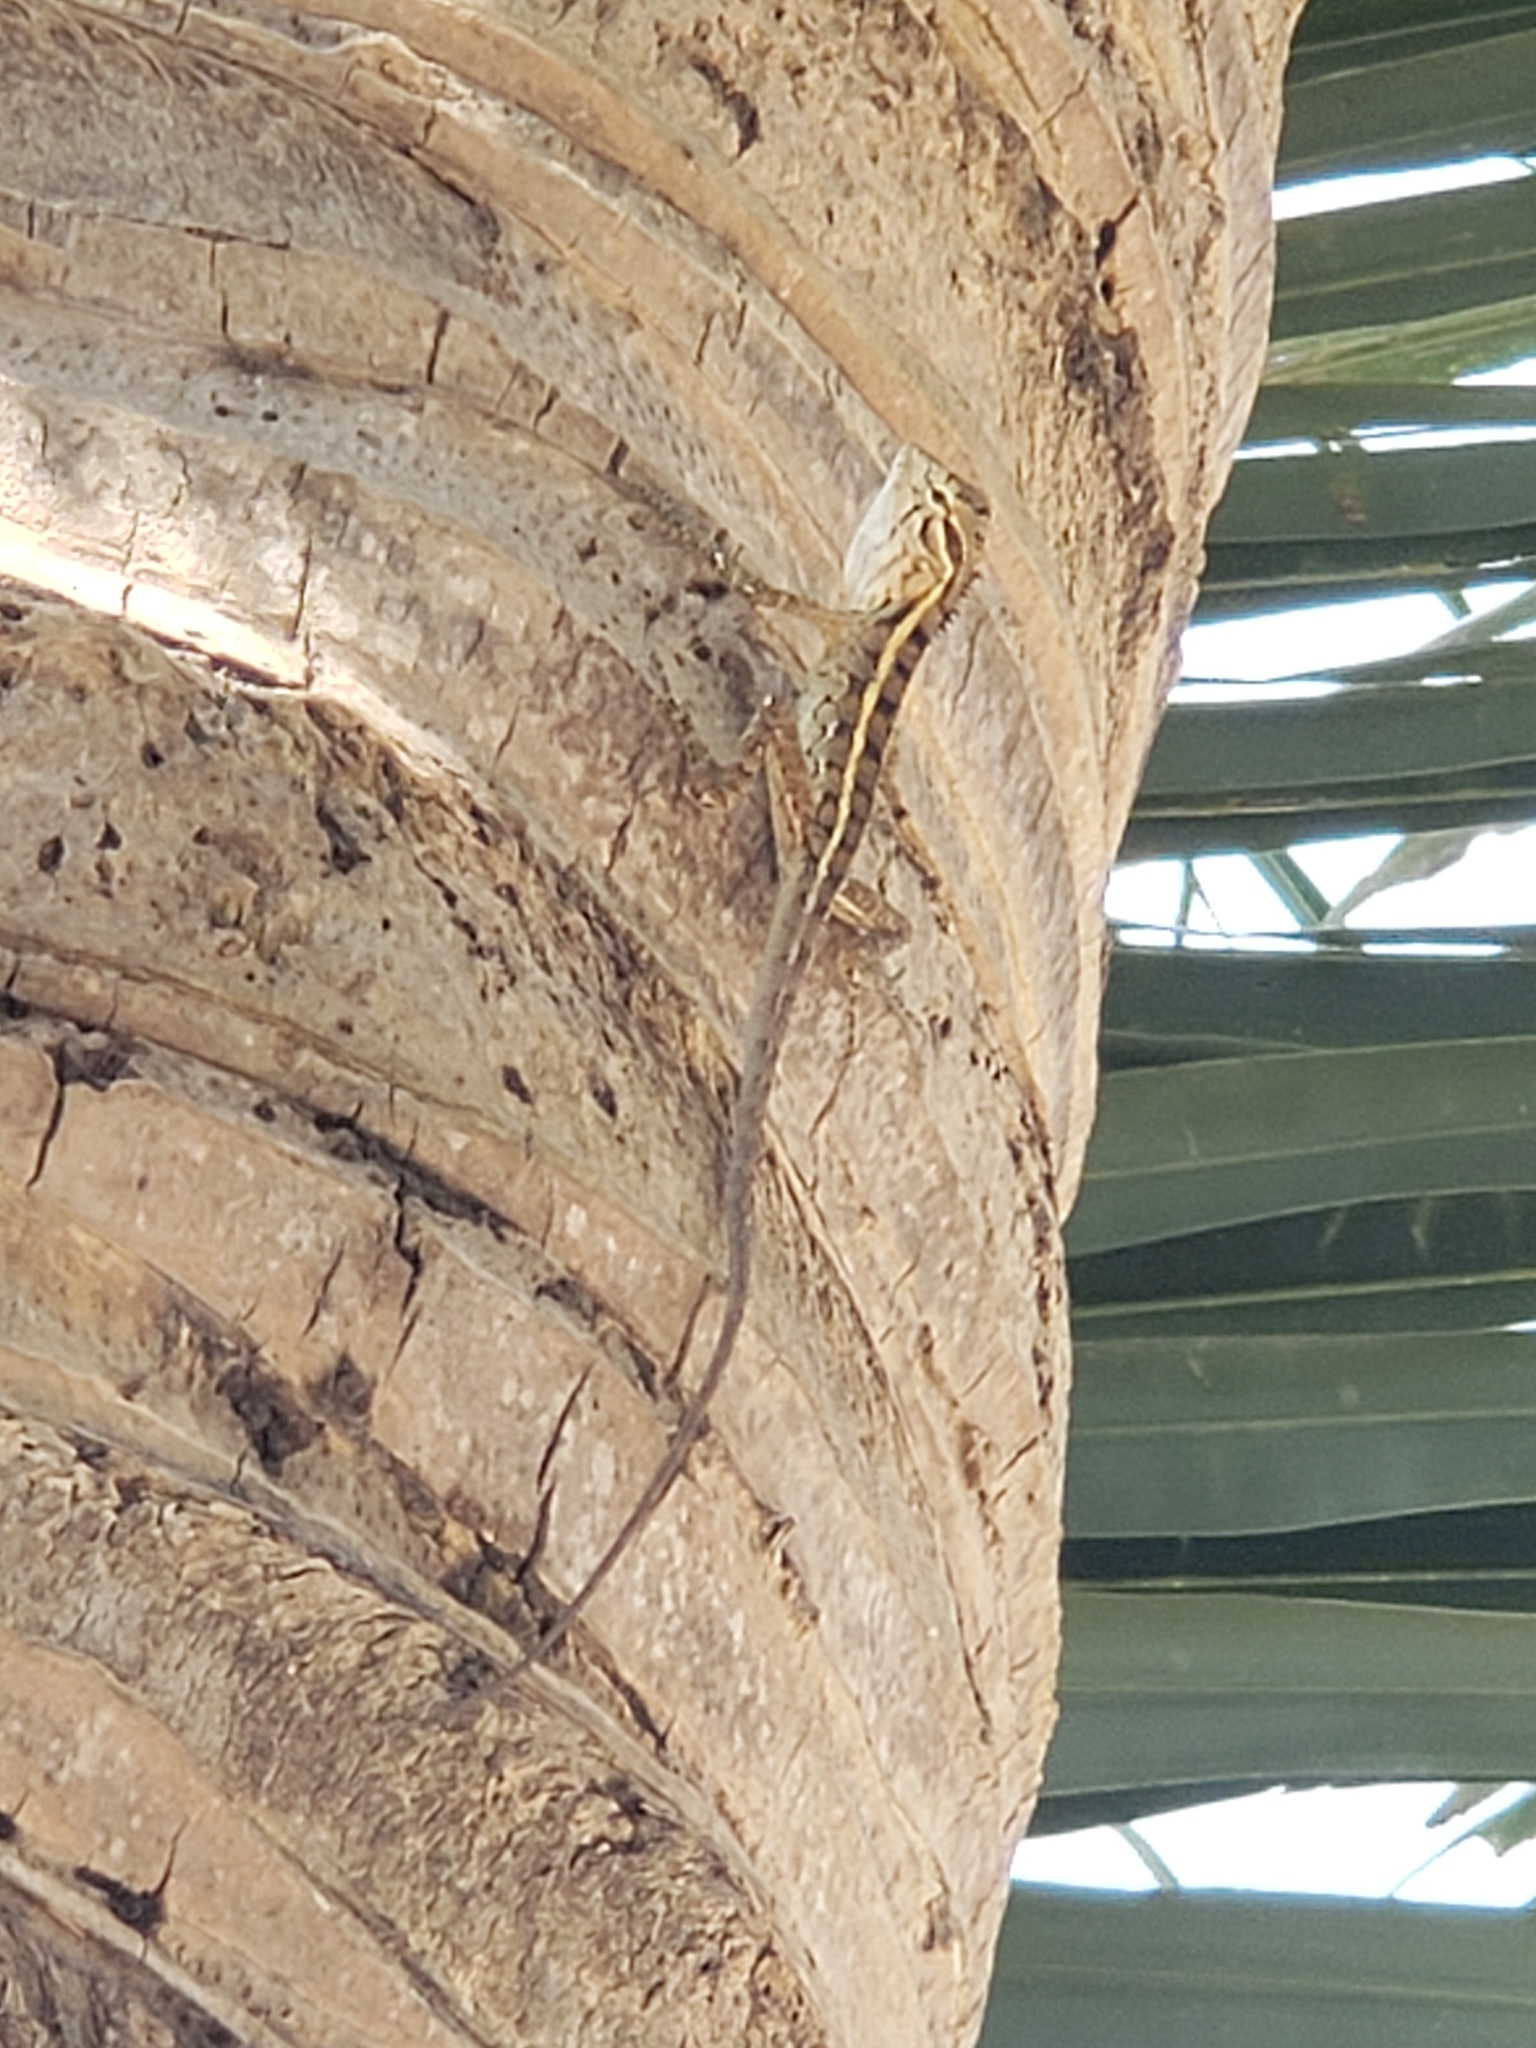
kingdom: Animalia
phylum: Chordata
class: Squamata
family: Agamidae
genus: Calotes
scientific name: Calotes versicolor
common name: Oriental garden lizard
